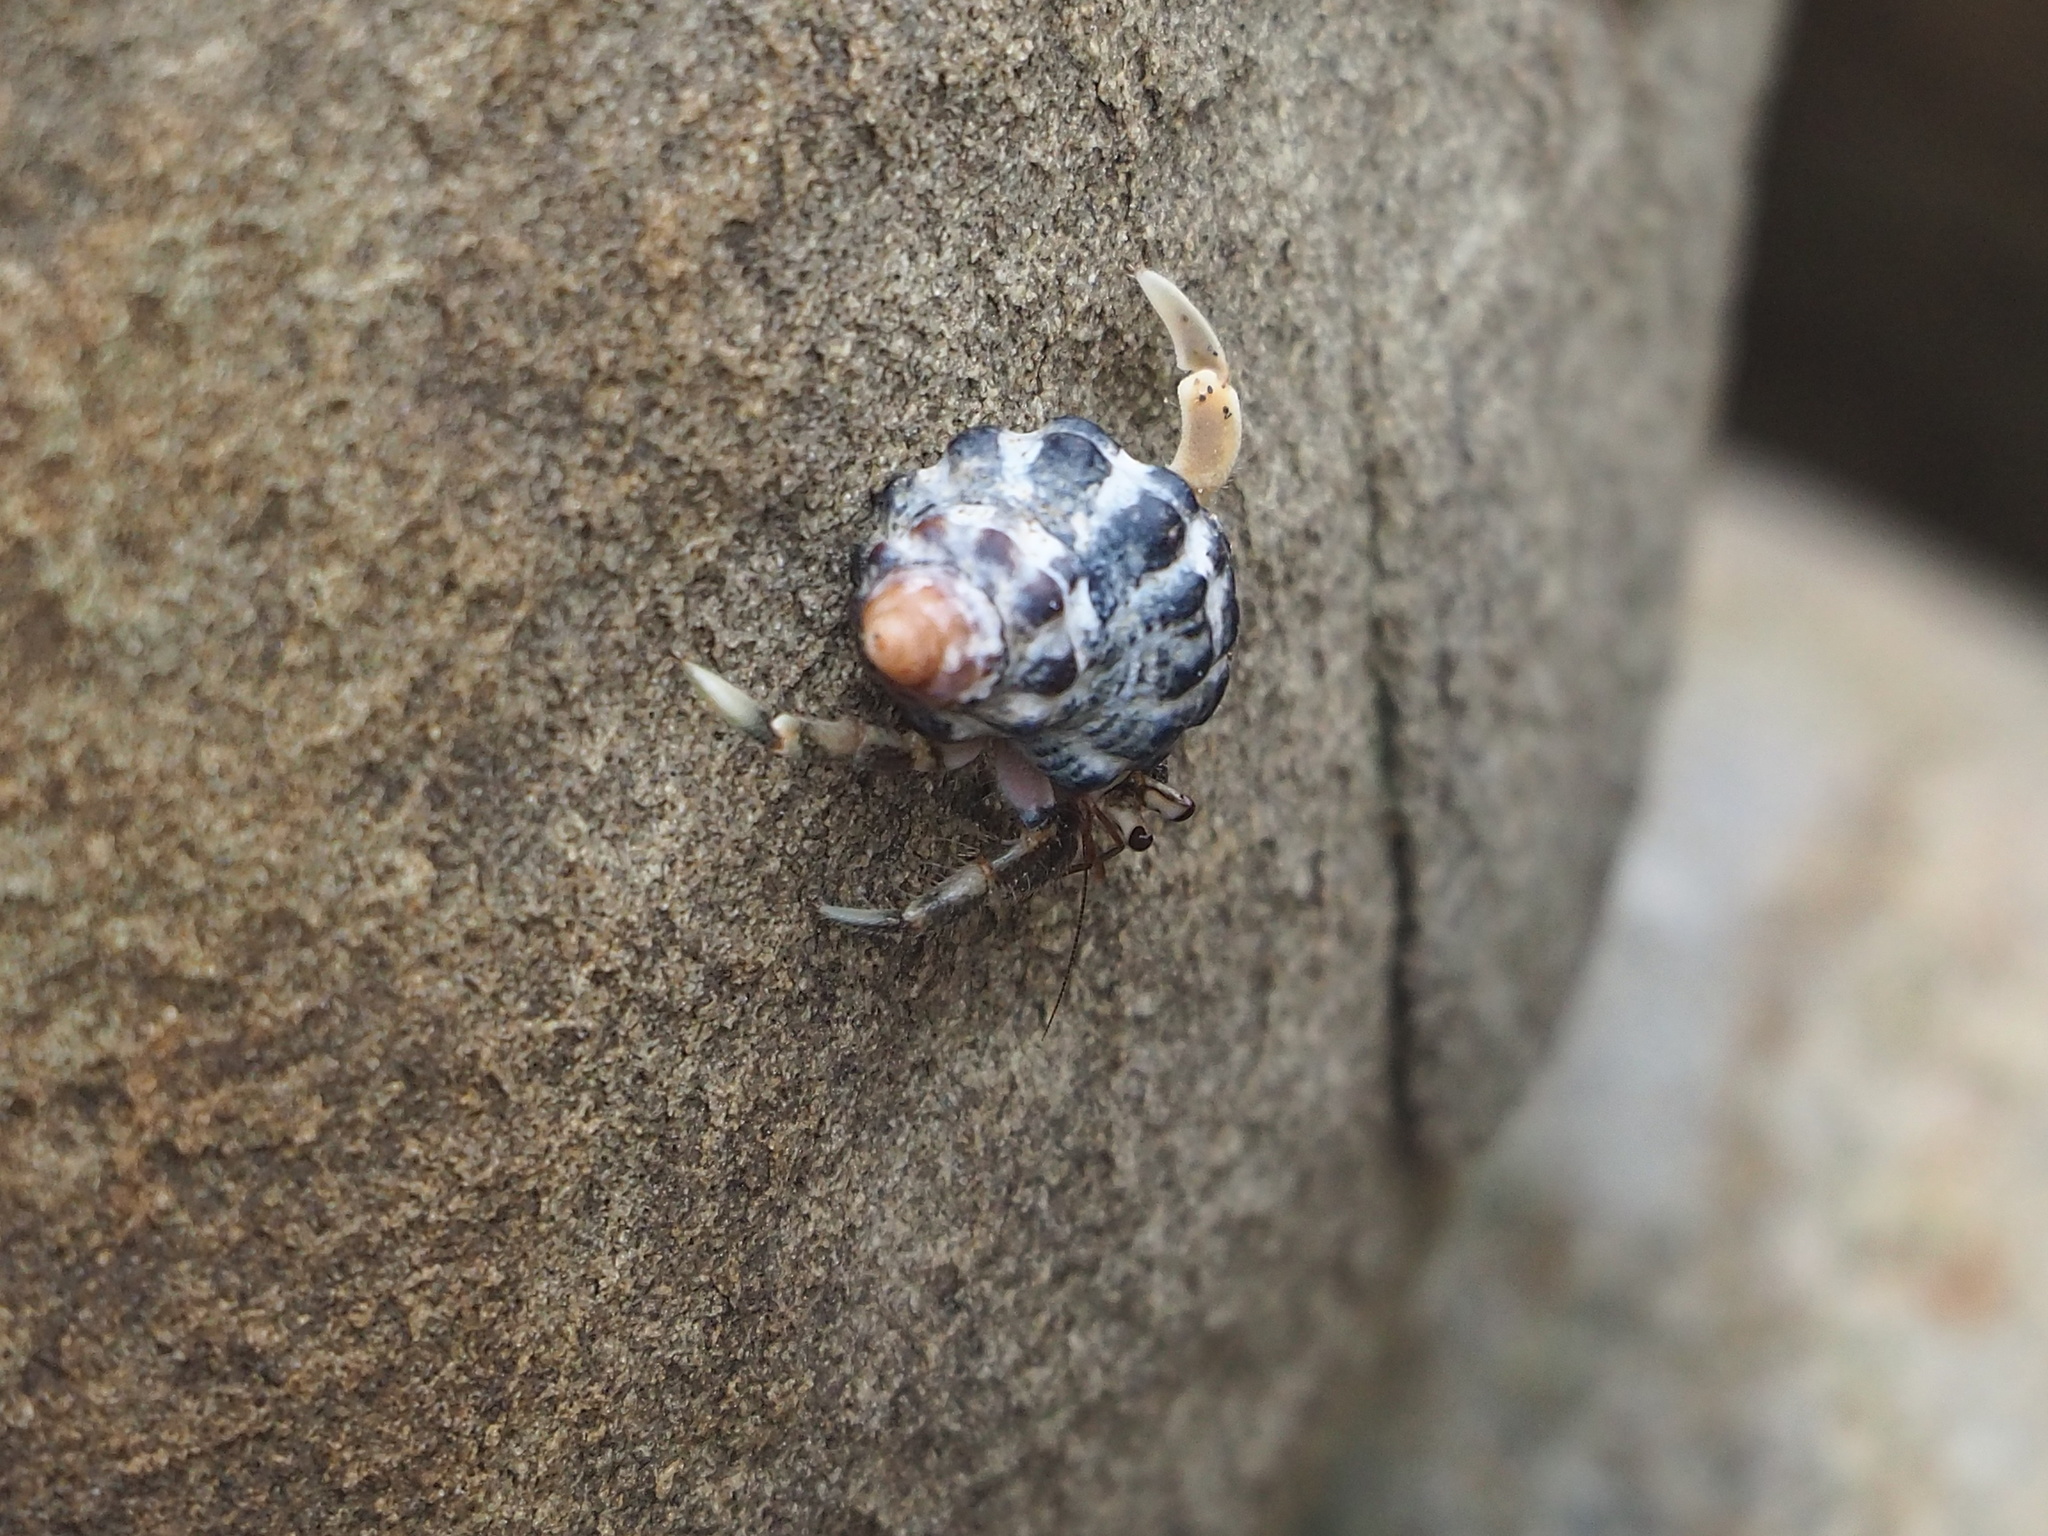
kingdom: Animalia
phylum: Arthropoda
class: Malacostraca
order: Decapoda
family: Coenobitidae
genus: Coenobita
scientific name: Coenobita rugosus
